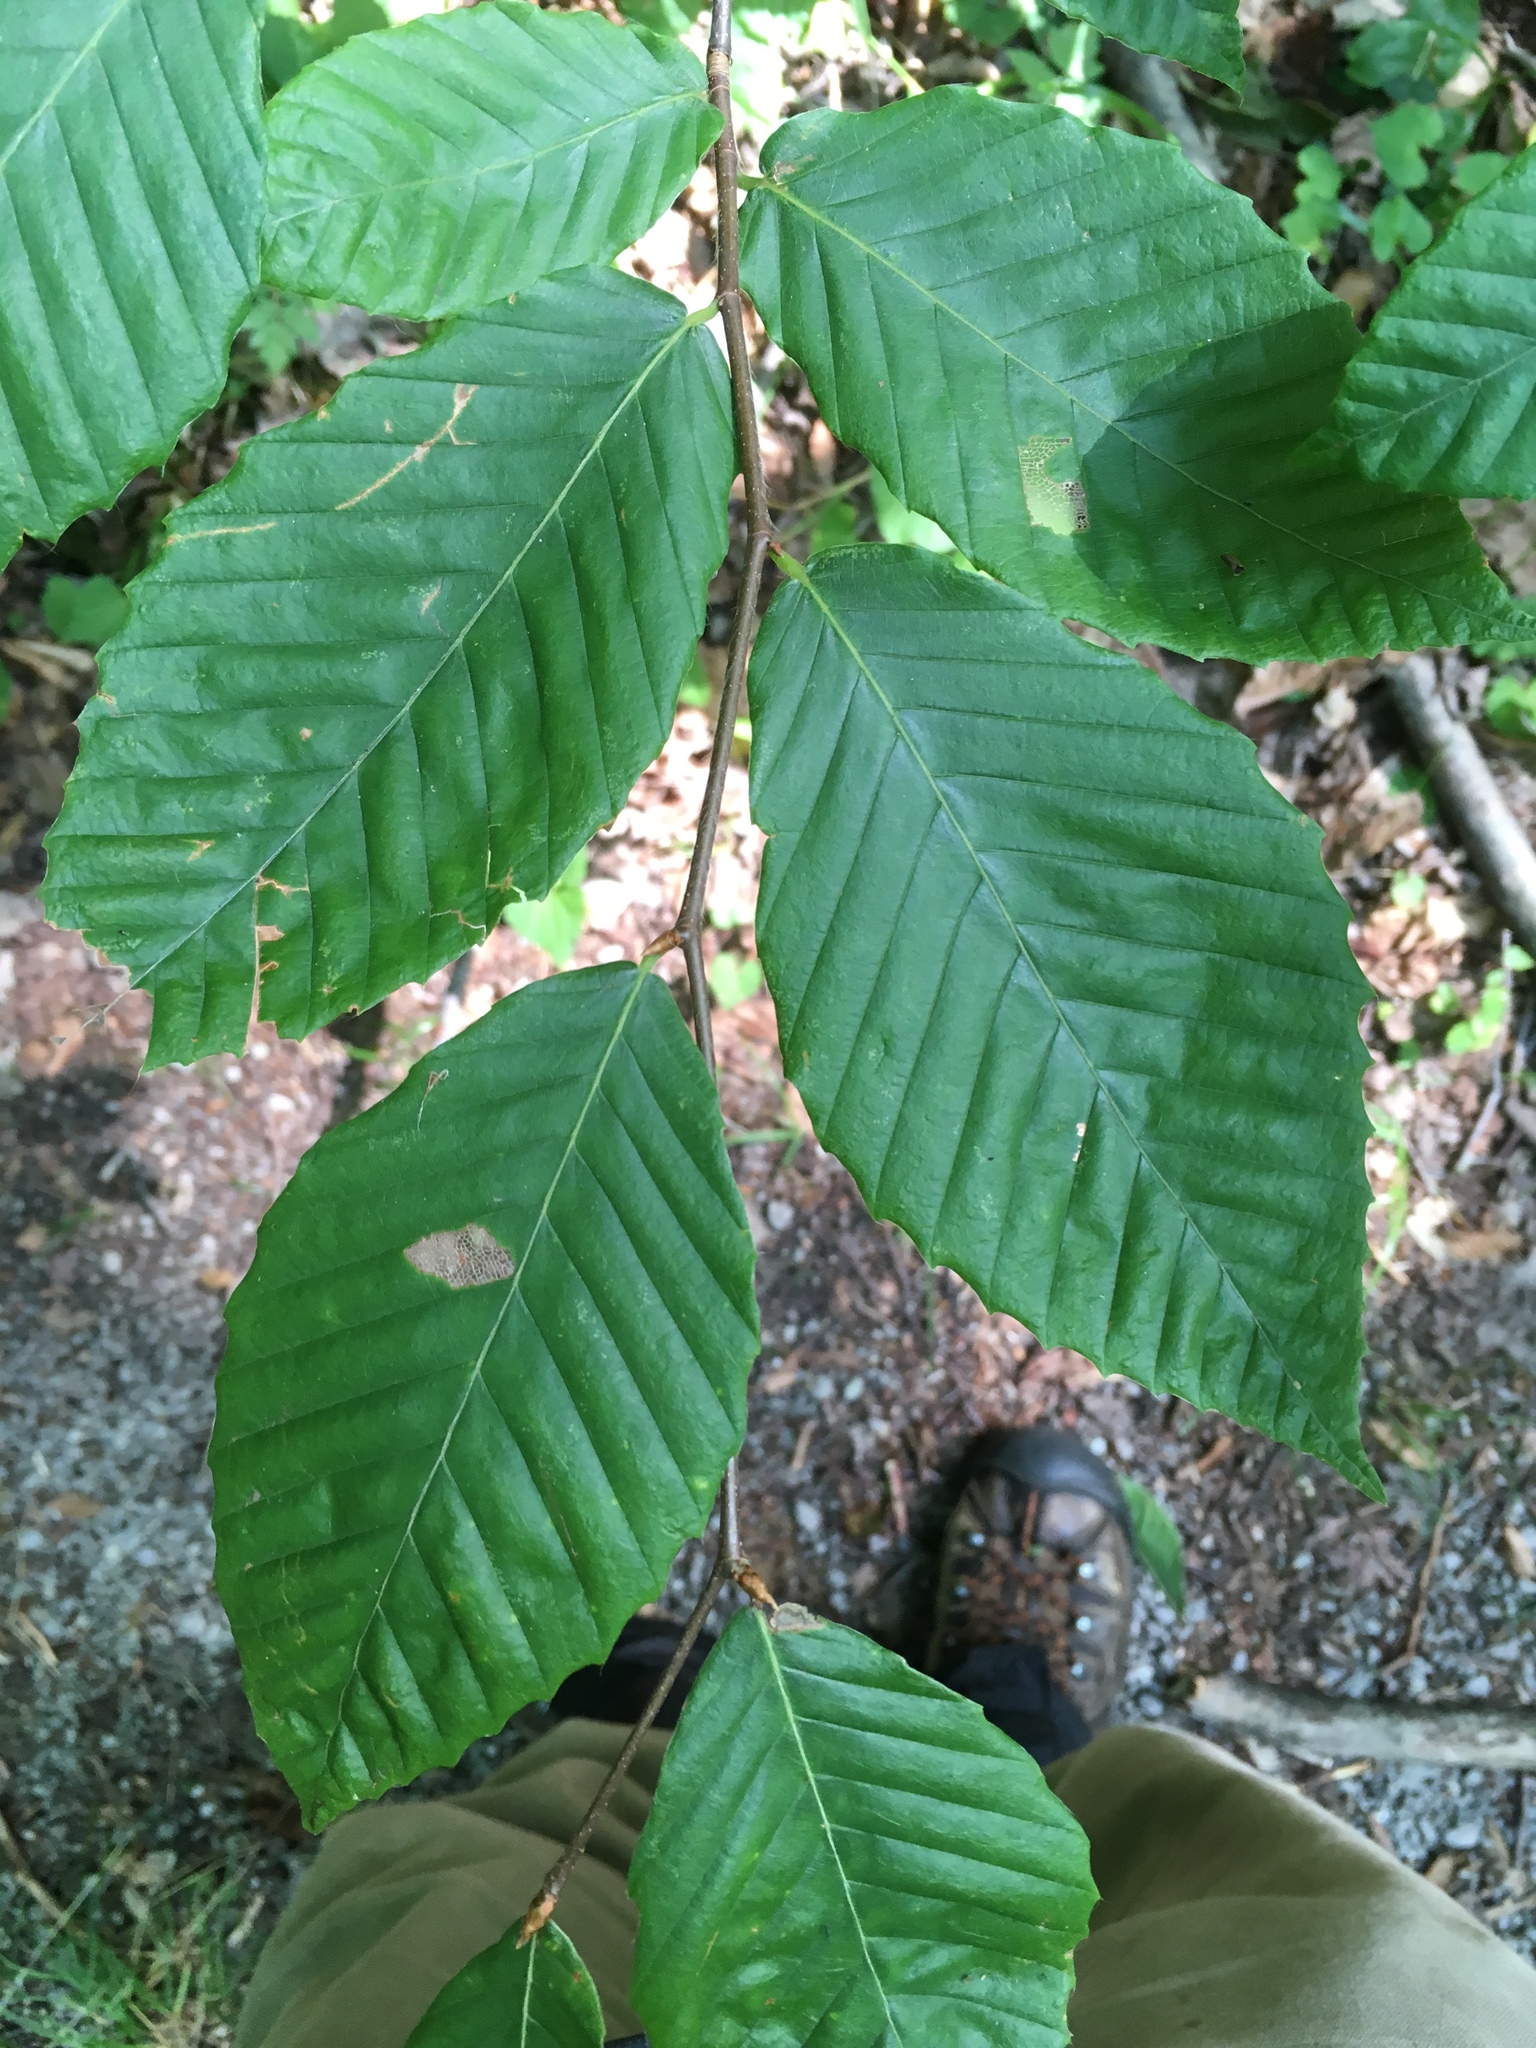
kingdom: Plantae
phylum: Tracheophyta
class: Magnoliopsida
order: Fagales
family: Fagaceae
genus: Fagus
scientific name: Fagus grandifolia
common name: American beech
